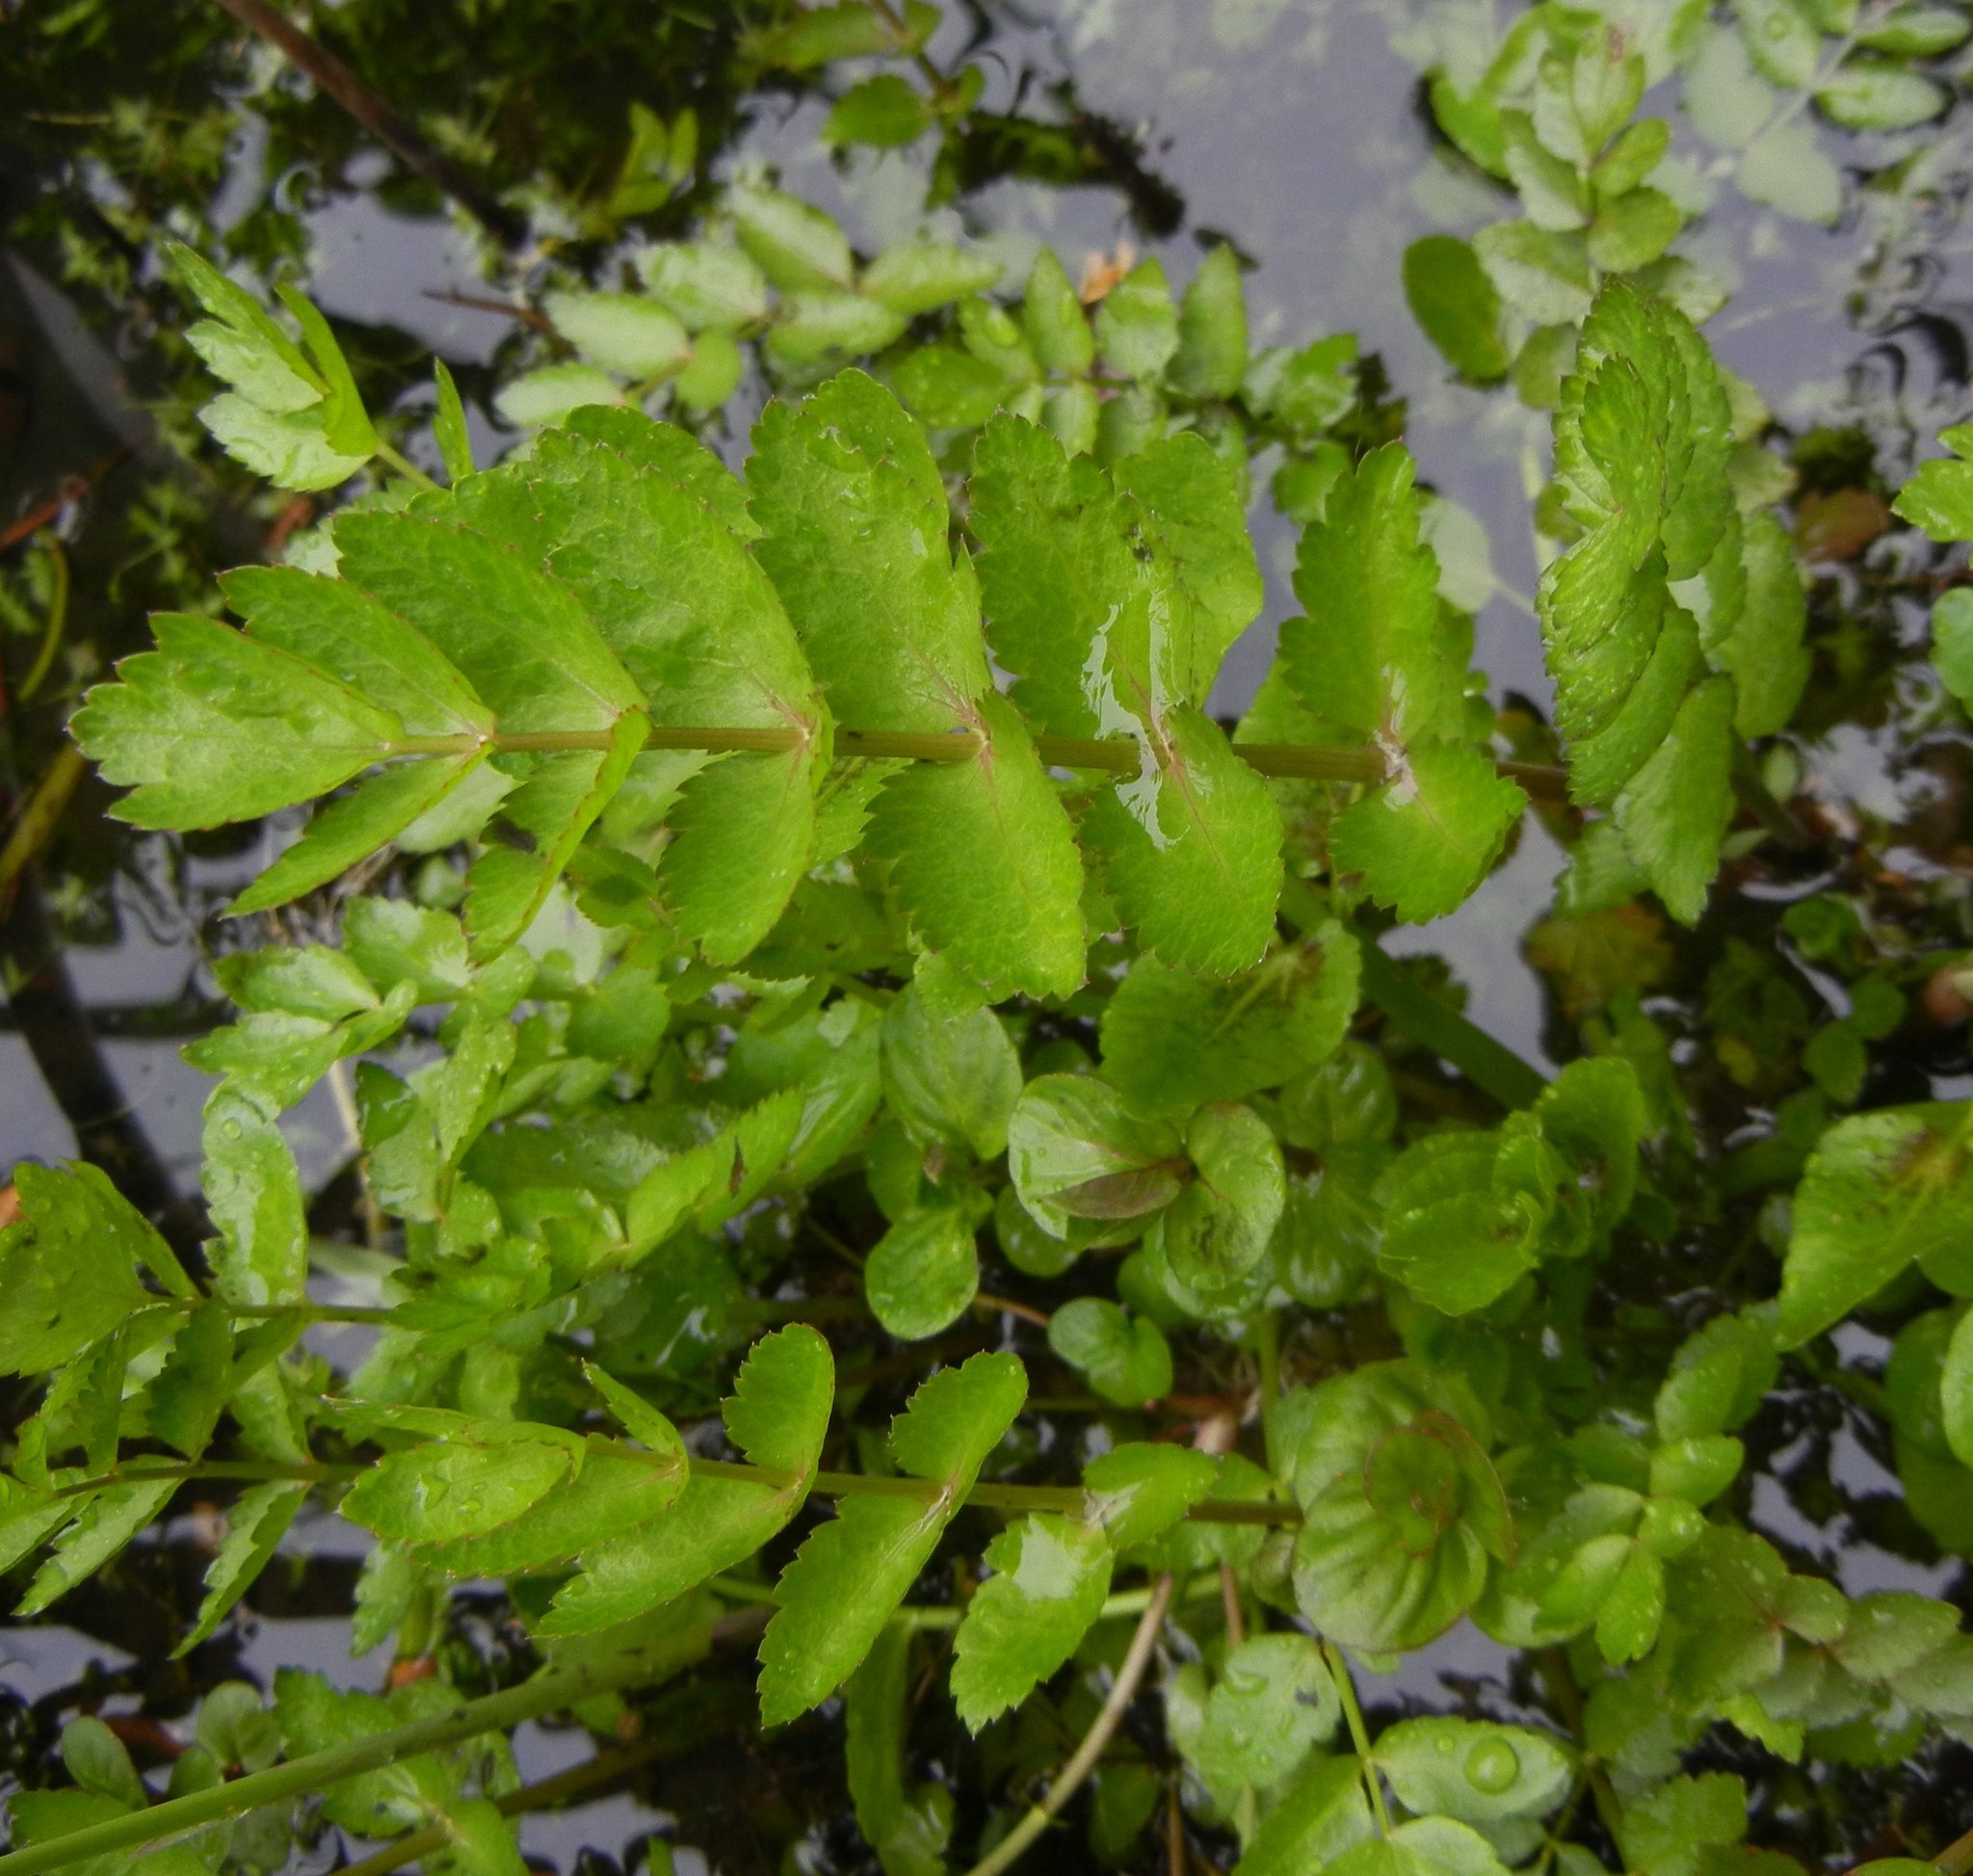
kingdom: Plantae
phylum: Tracheophyta
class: Magnoliopsida
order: Apiales
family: Apiaceae
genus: Berula
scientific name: Berula erecta
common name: Lesser water-parsnip
